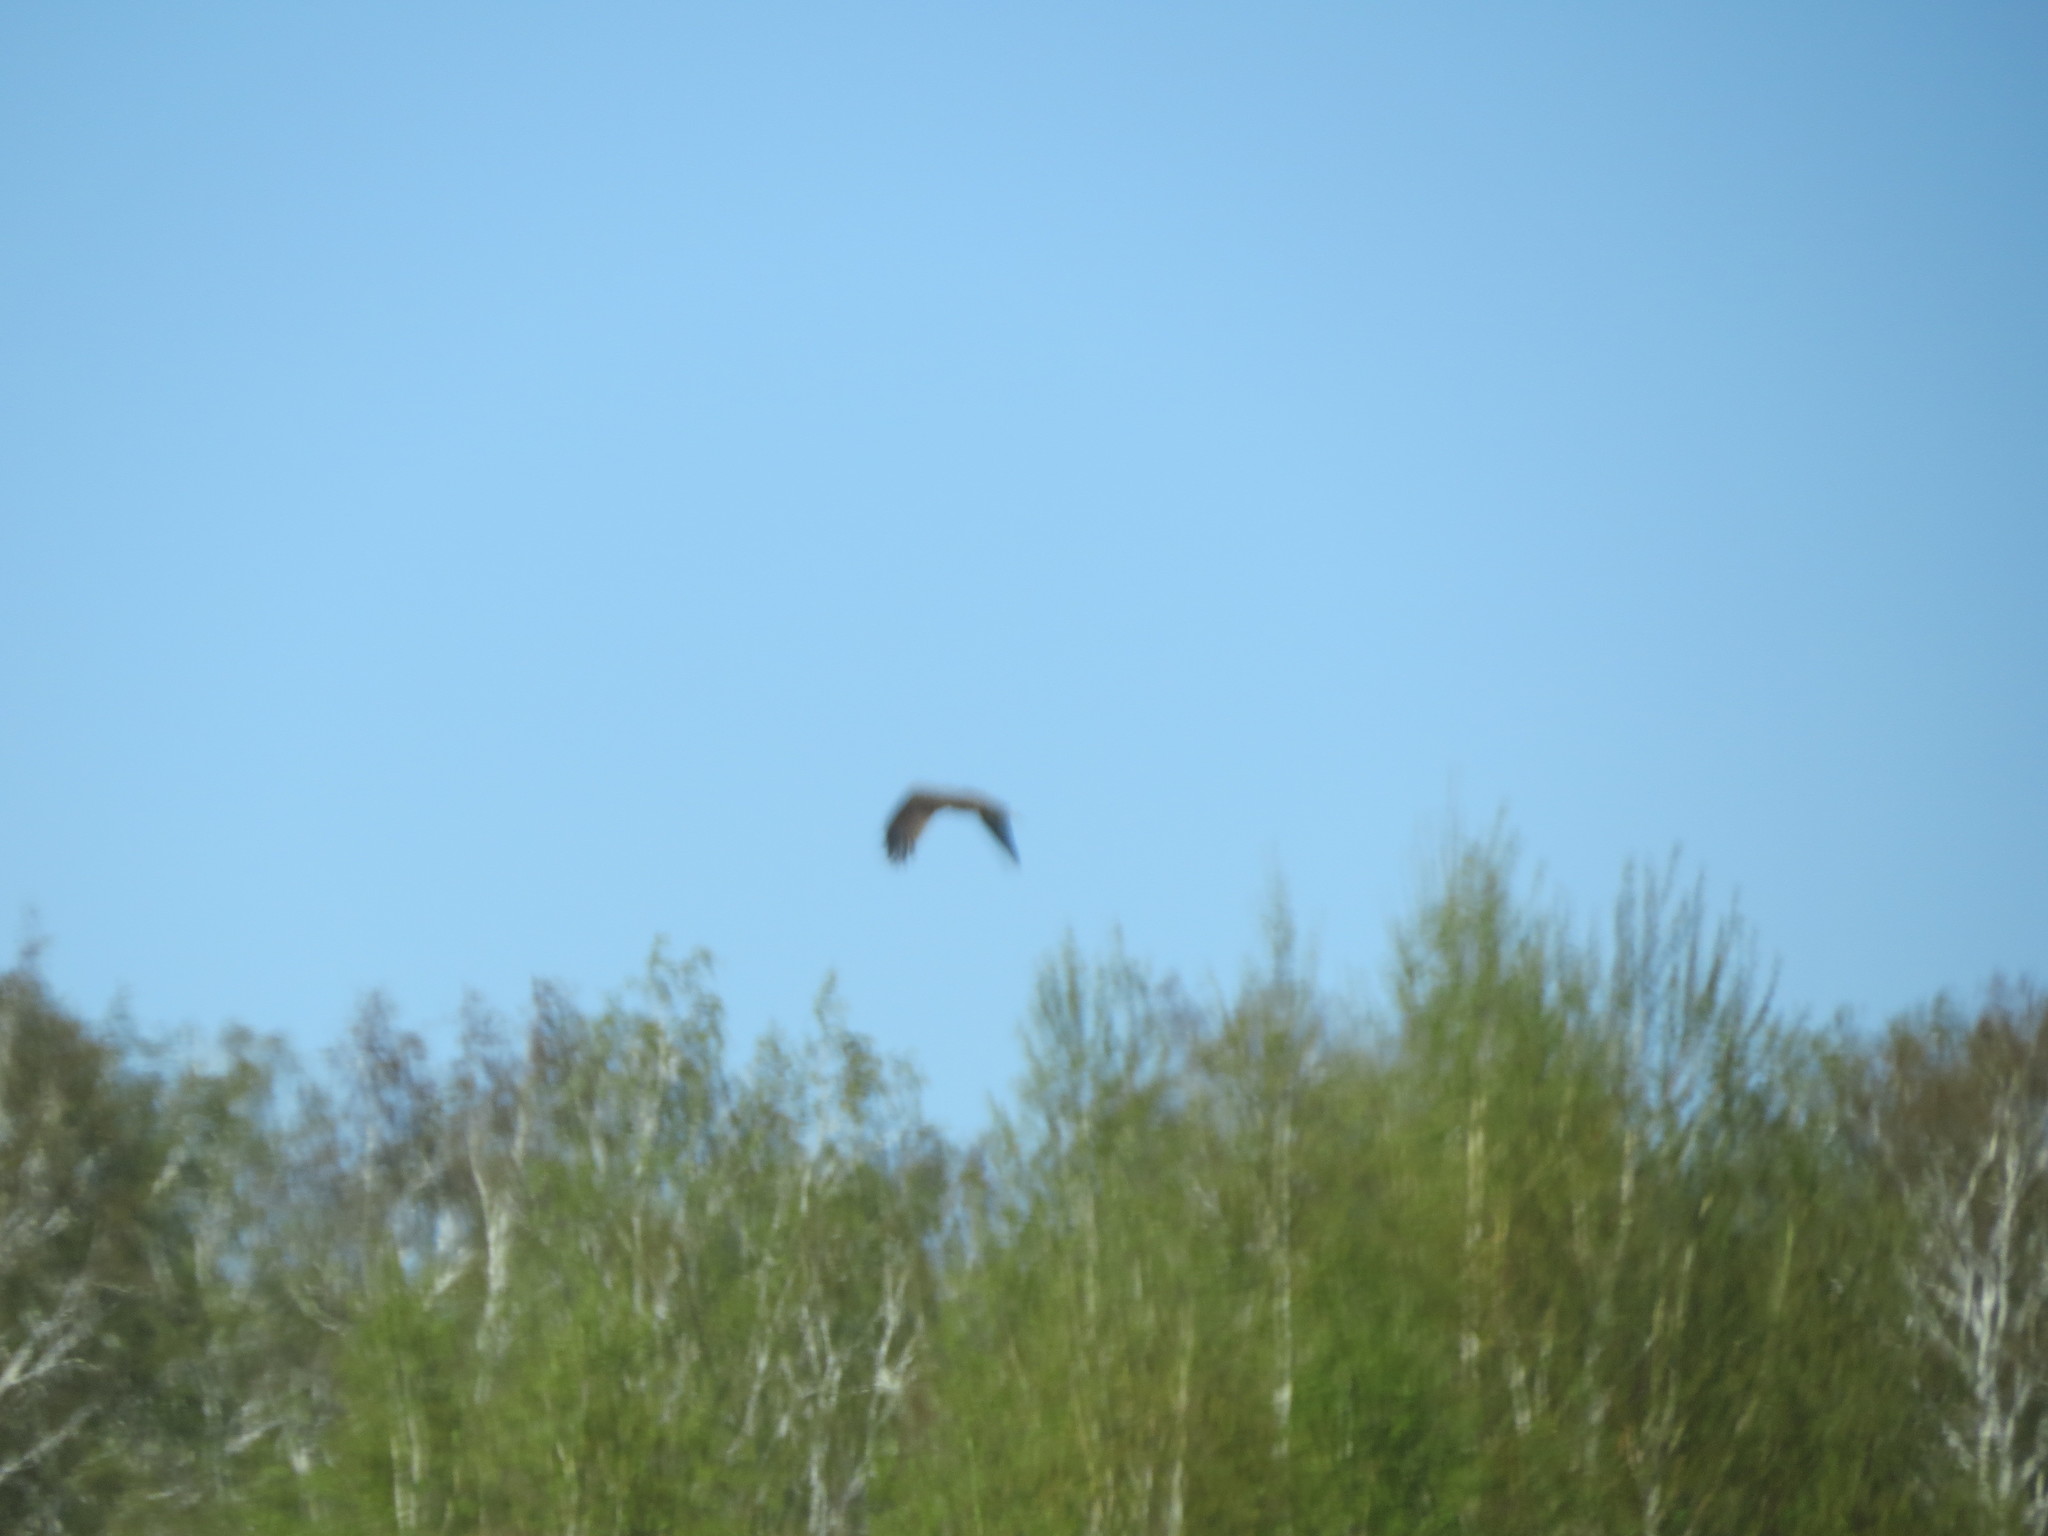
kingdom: Animalia
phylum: Chordata
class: Aves
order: Accipitriformes
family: Accipitridae
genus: Milvus
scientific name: Milvus migrans
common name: Black kite
